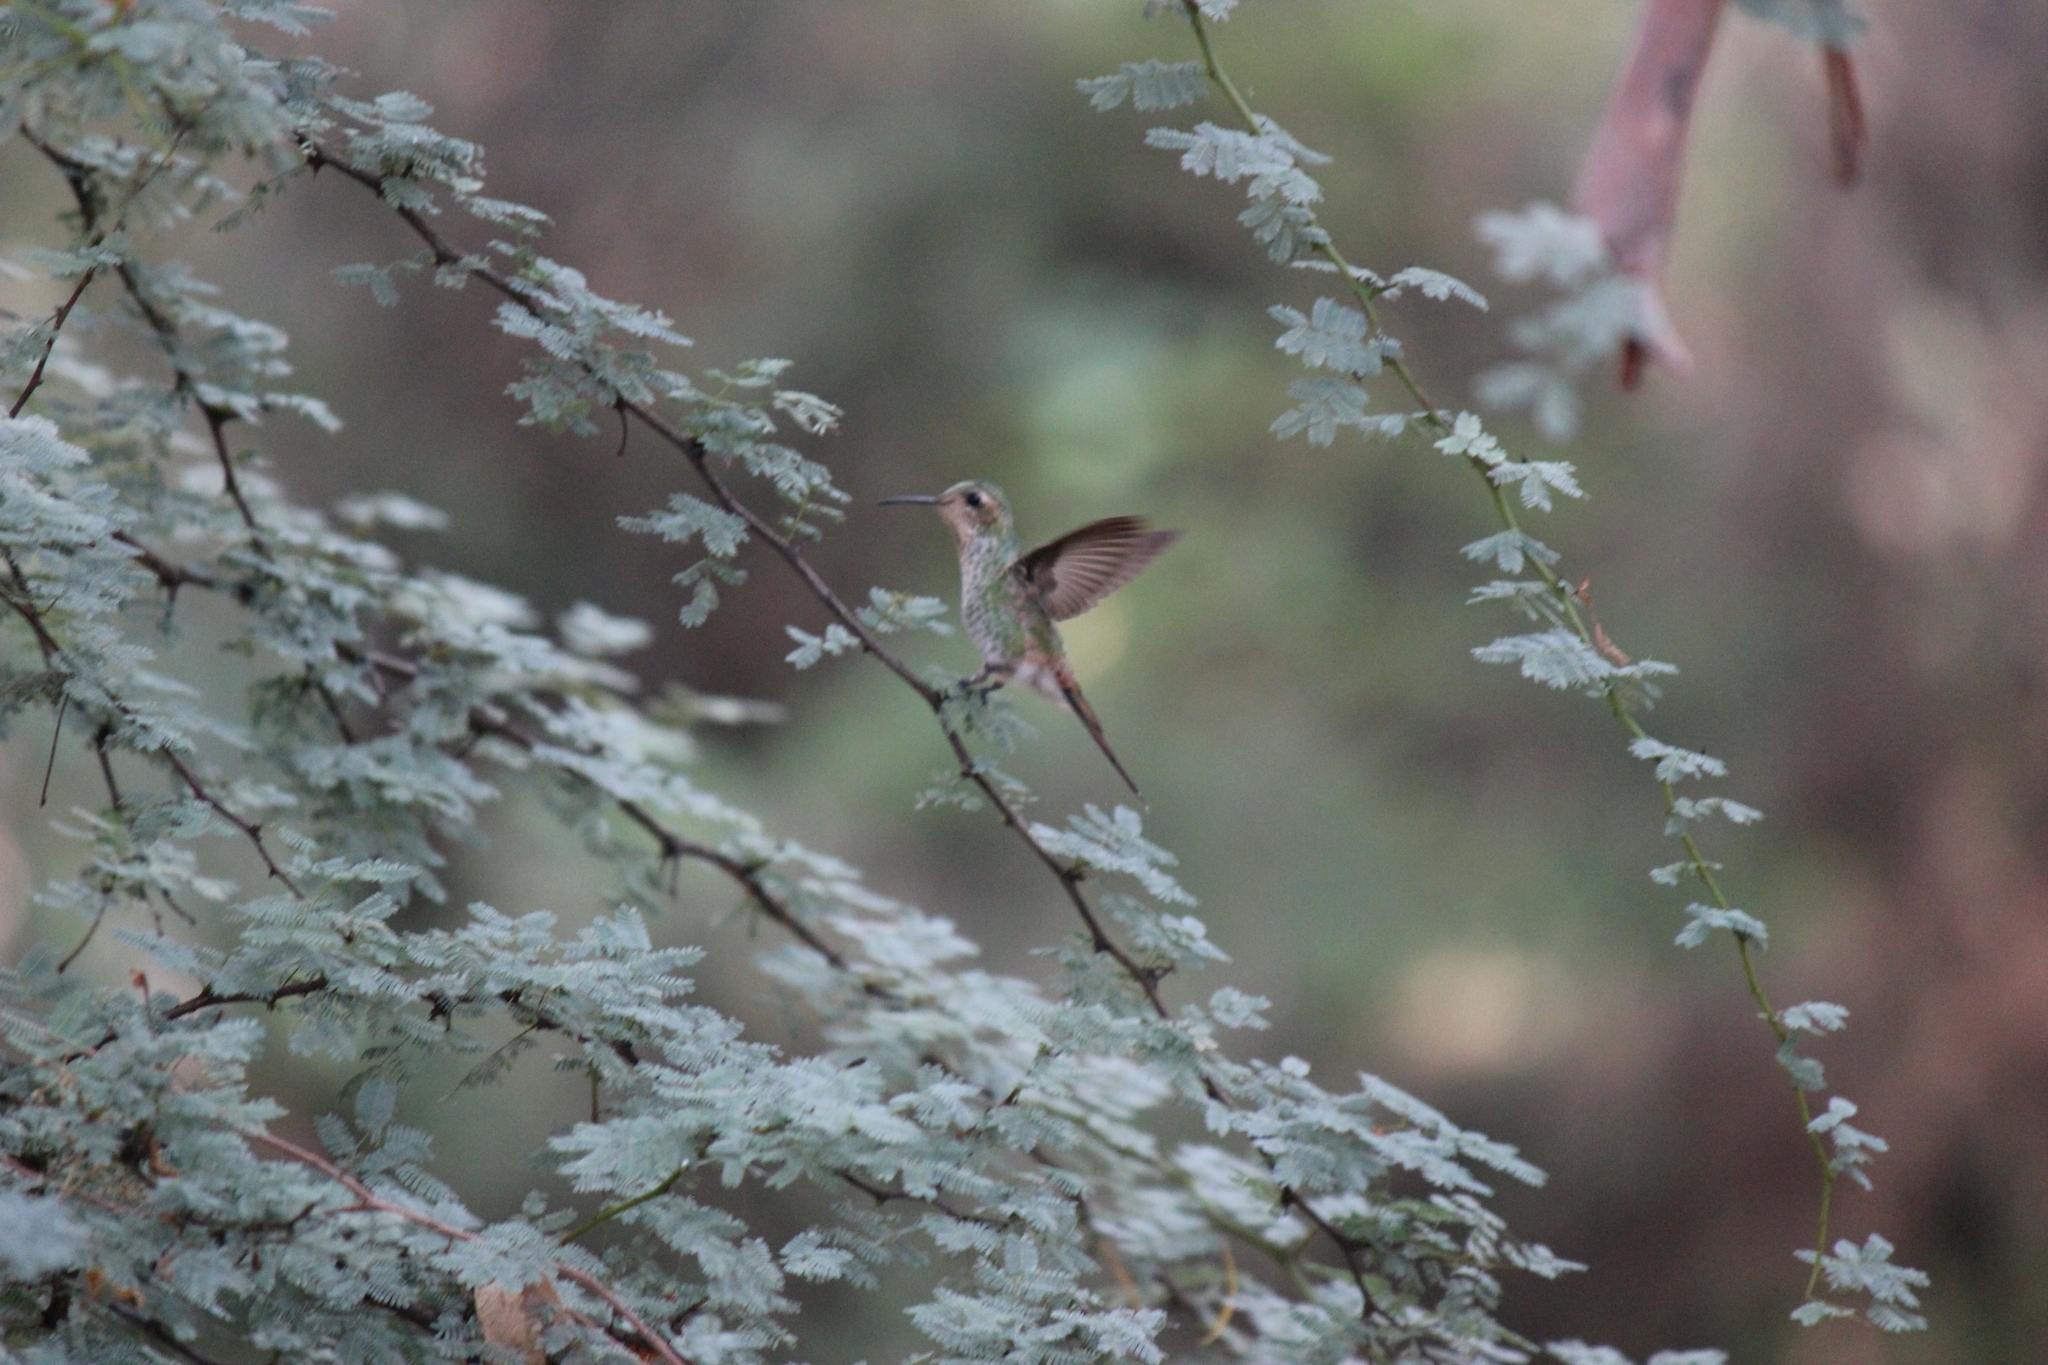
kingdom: Animalia
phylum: Chordata
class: Aves
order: Apodiformes
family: Trochilidae
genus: Sappho
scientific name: Sappho sparganurus
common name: Red-tailed comet
